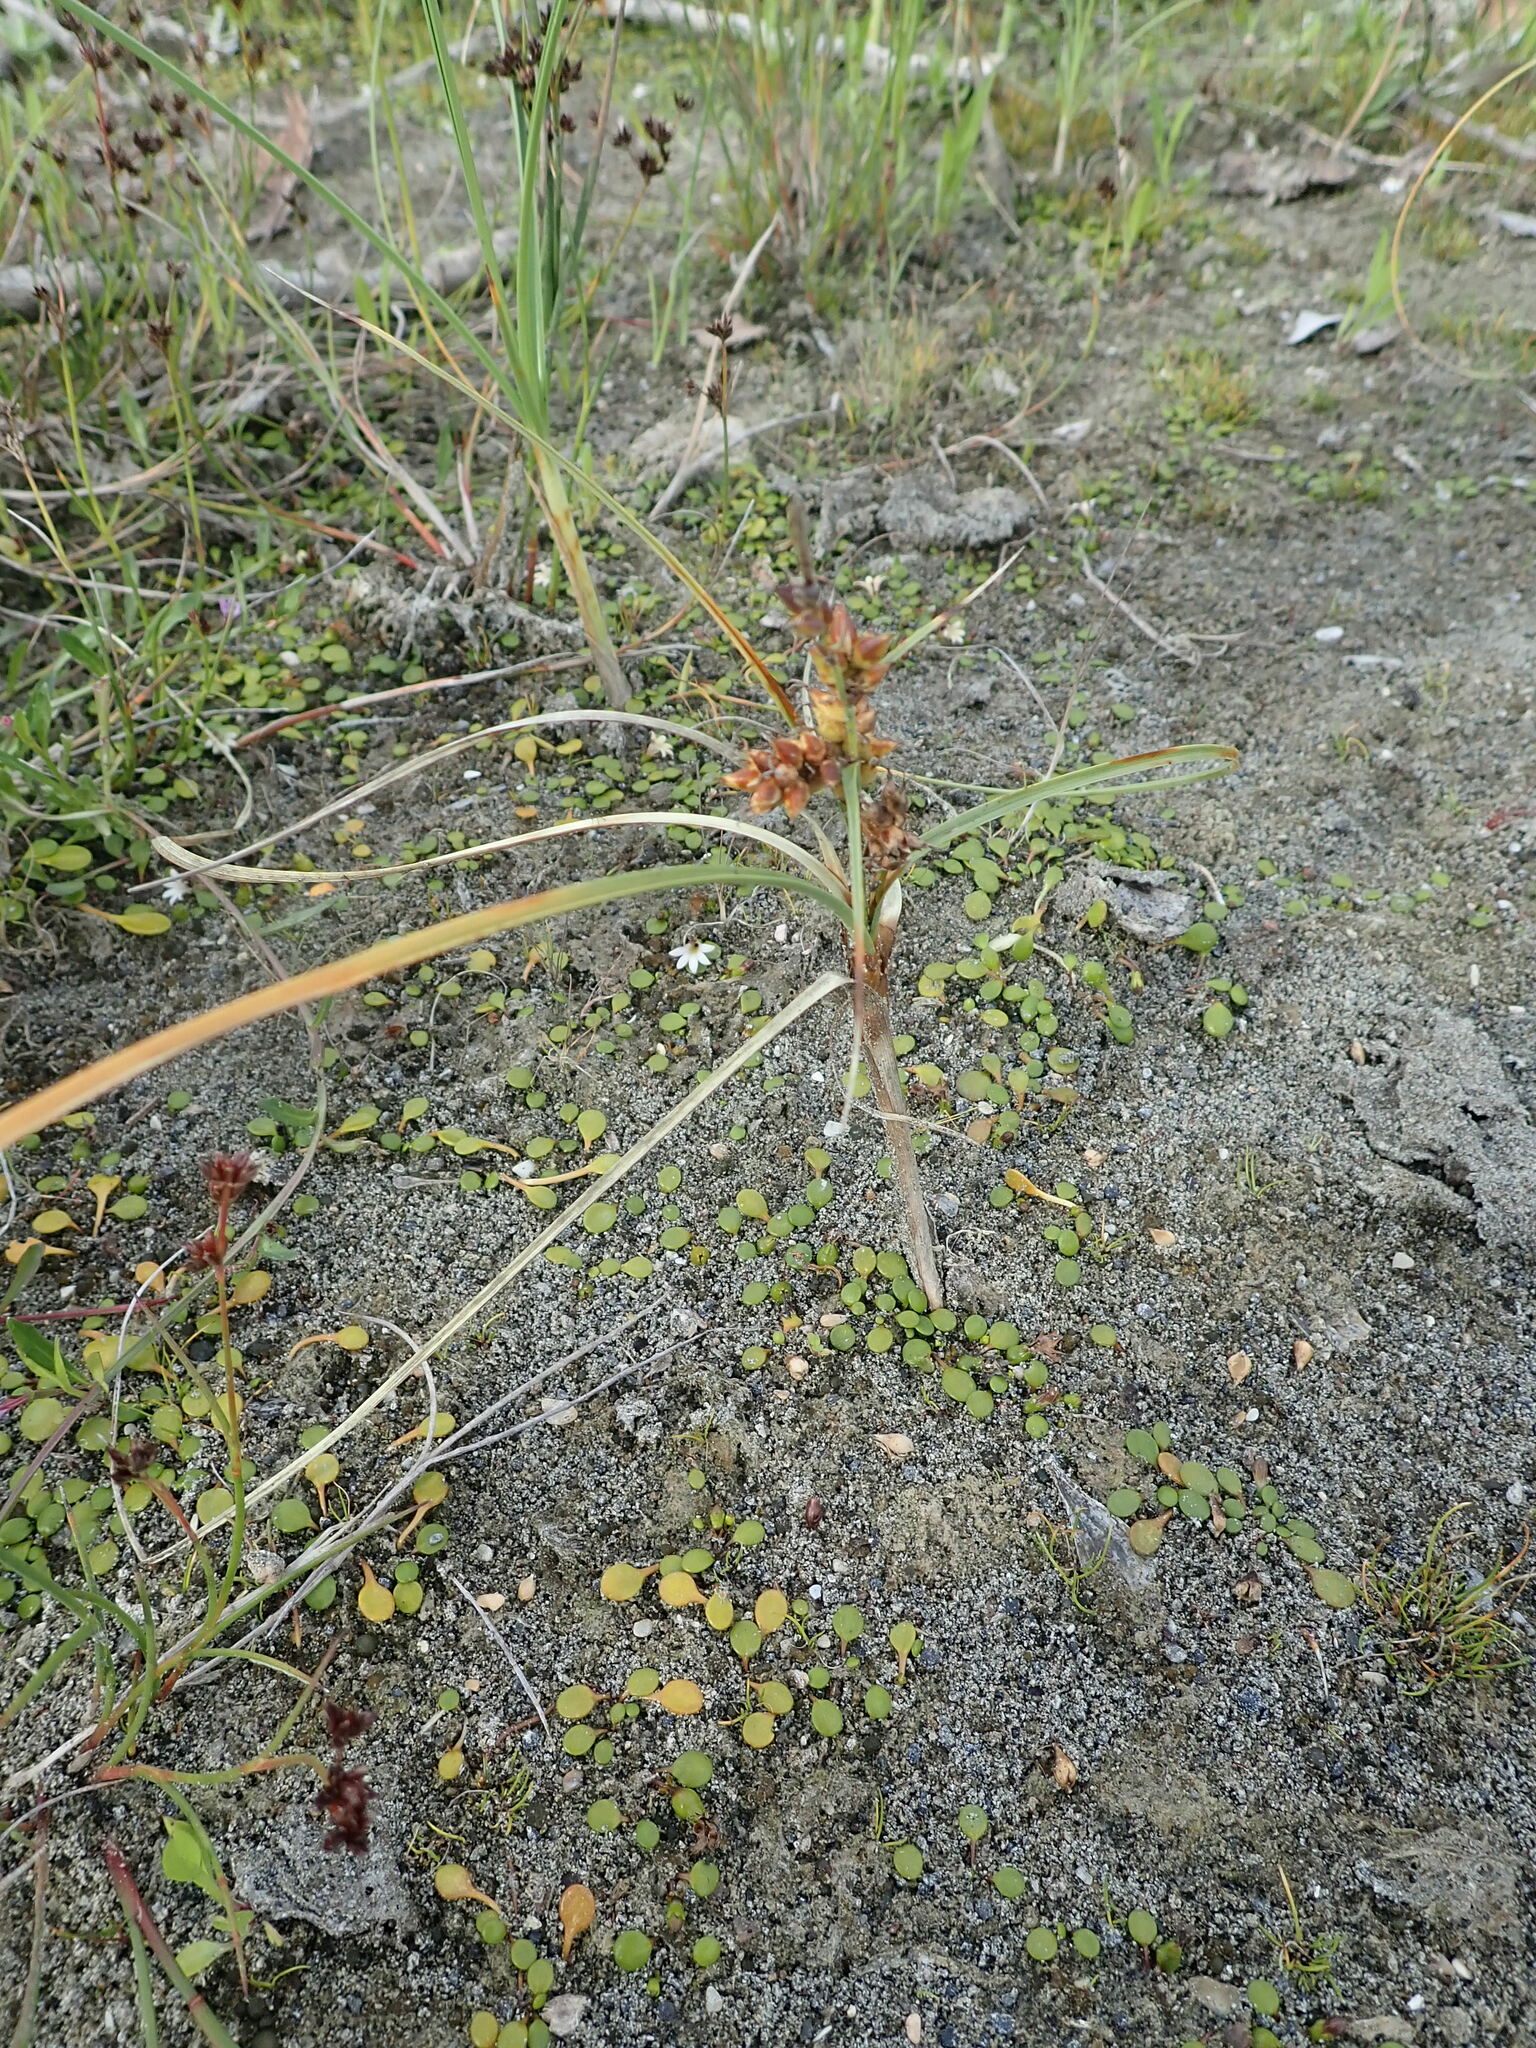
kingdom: Plantae
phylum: Tracheophyta
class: Liliopsida
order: Poales
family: Cyperaceae
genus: Carex
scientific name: Carex pumila
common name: Dwarf sedge
